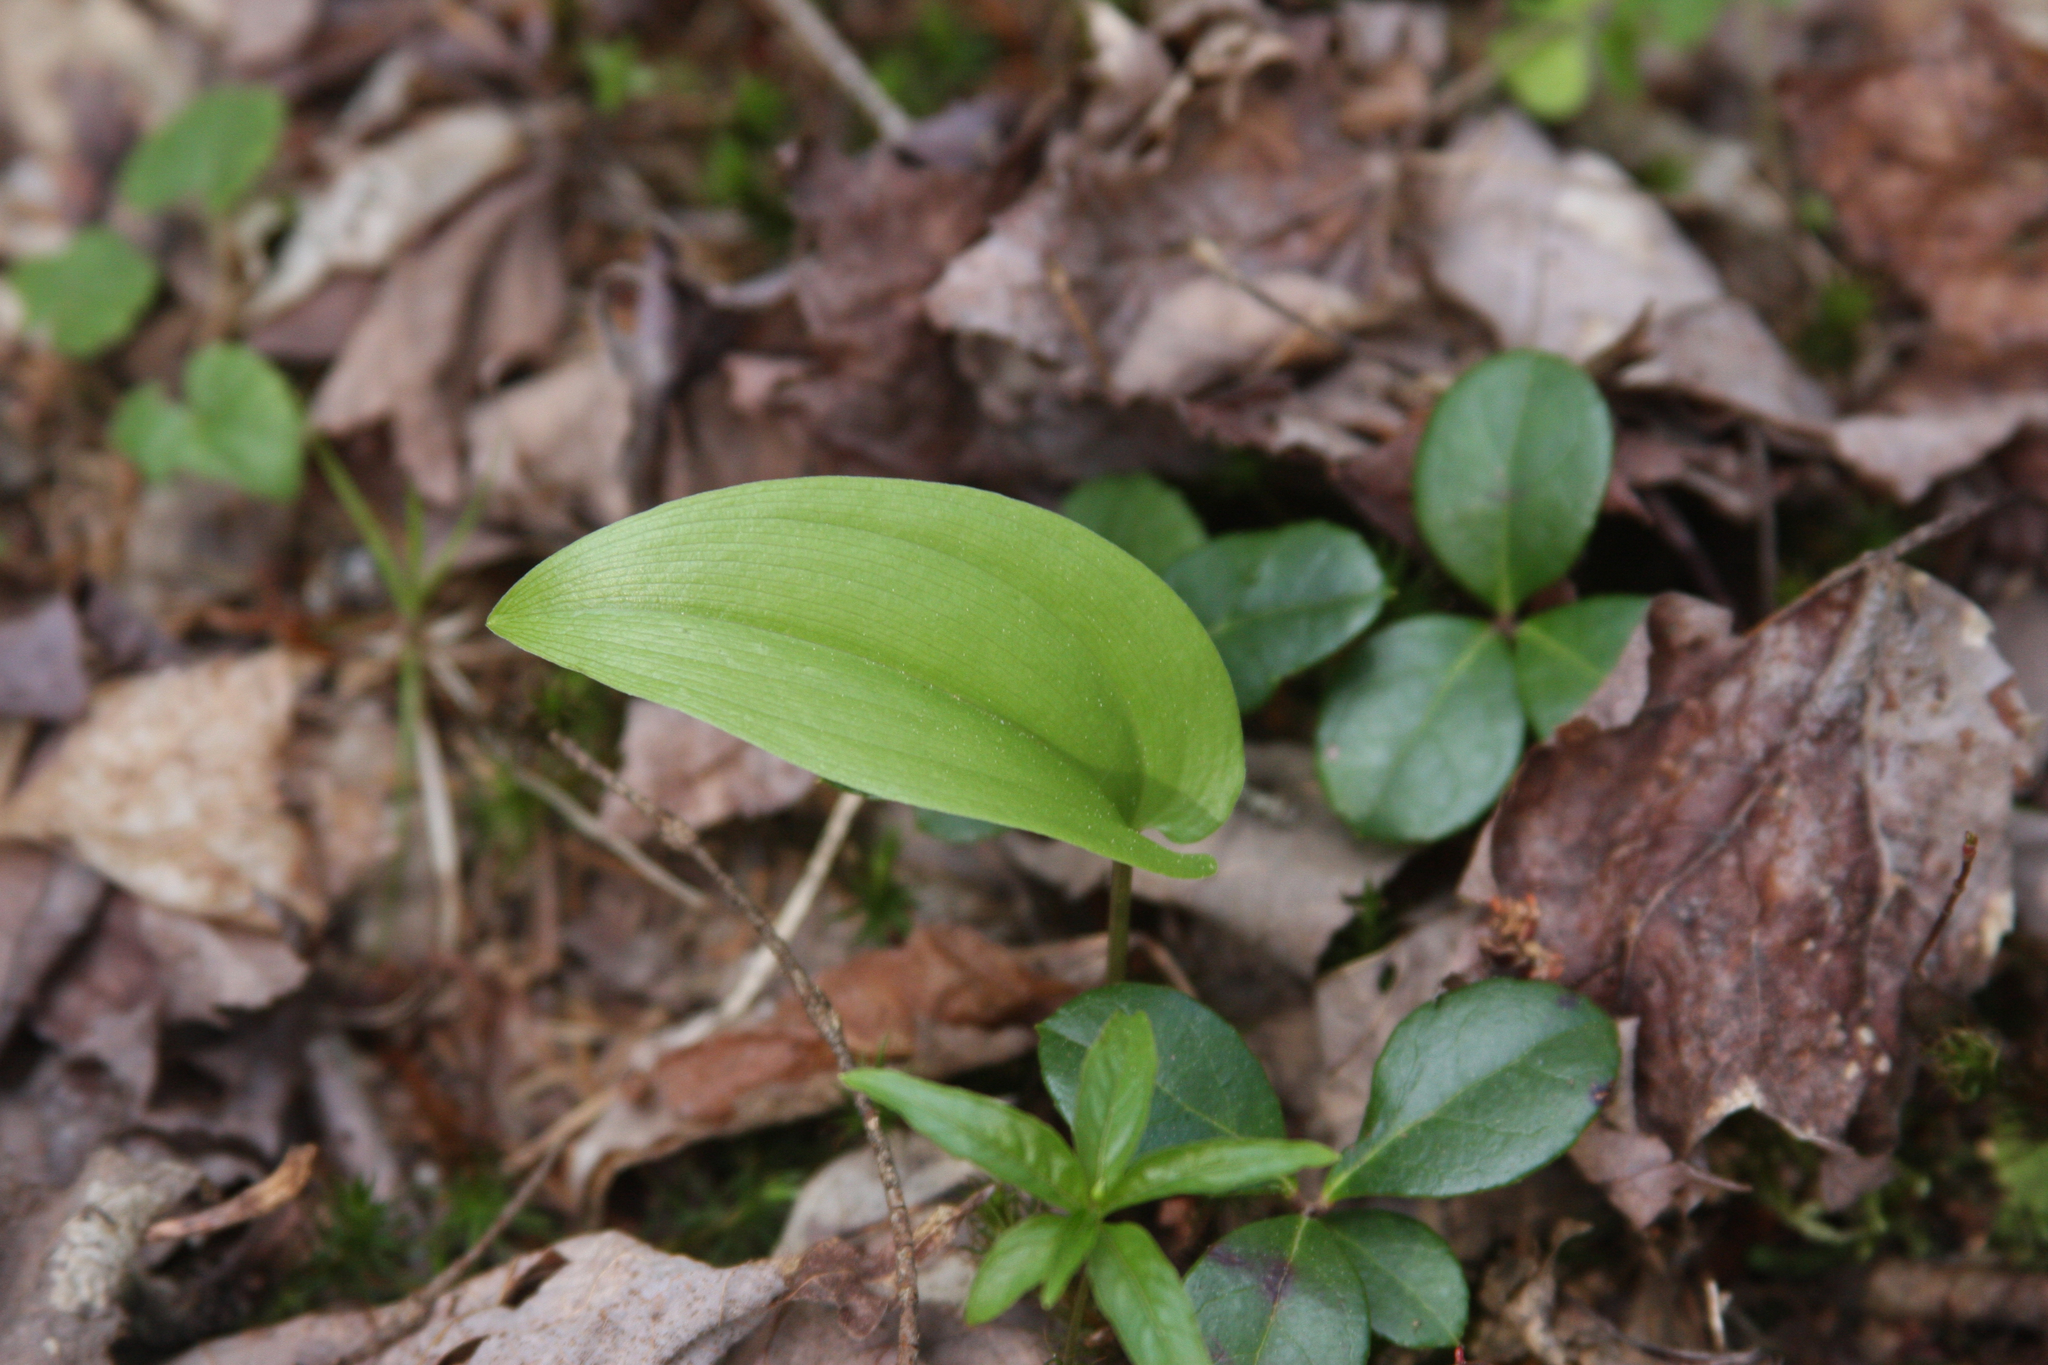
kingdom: Plantae
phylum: Tracheophyta
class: Liliopsida
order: Asparagales
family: Asparagaceae
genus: Maianthemum
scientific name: Maianthemum canadense
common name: False lily-of-the-valley
